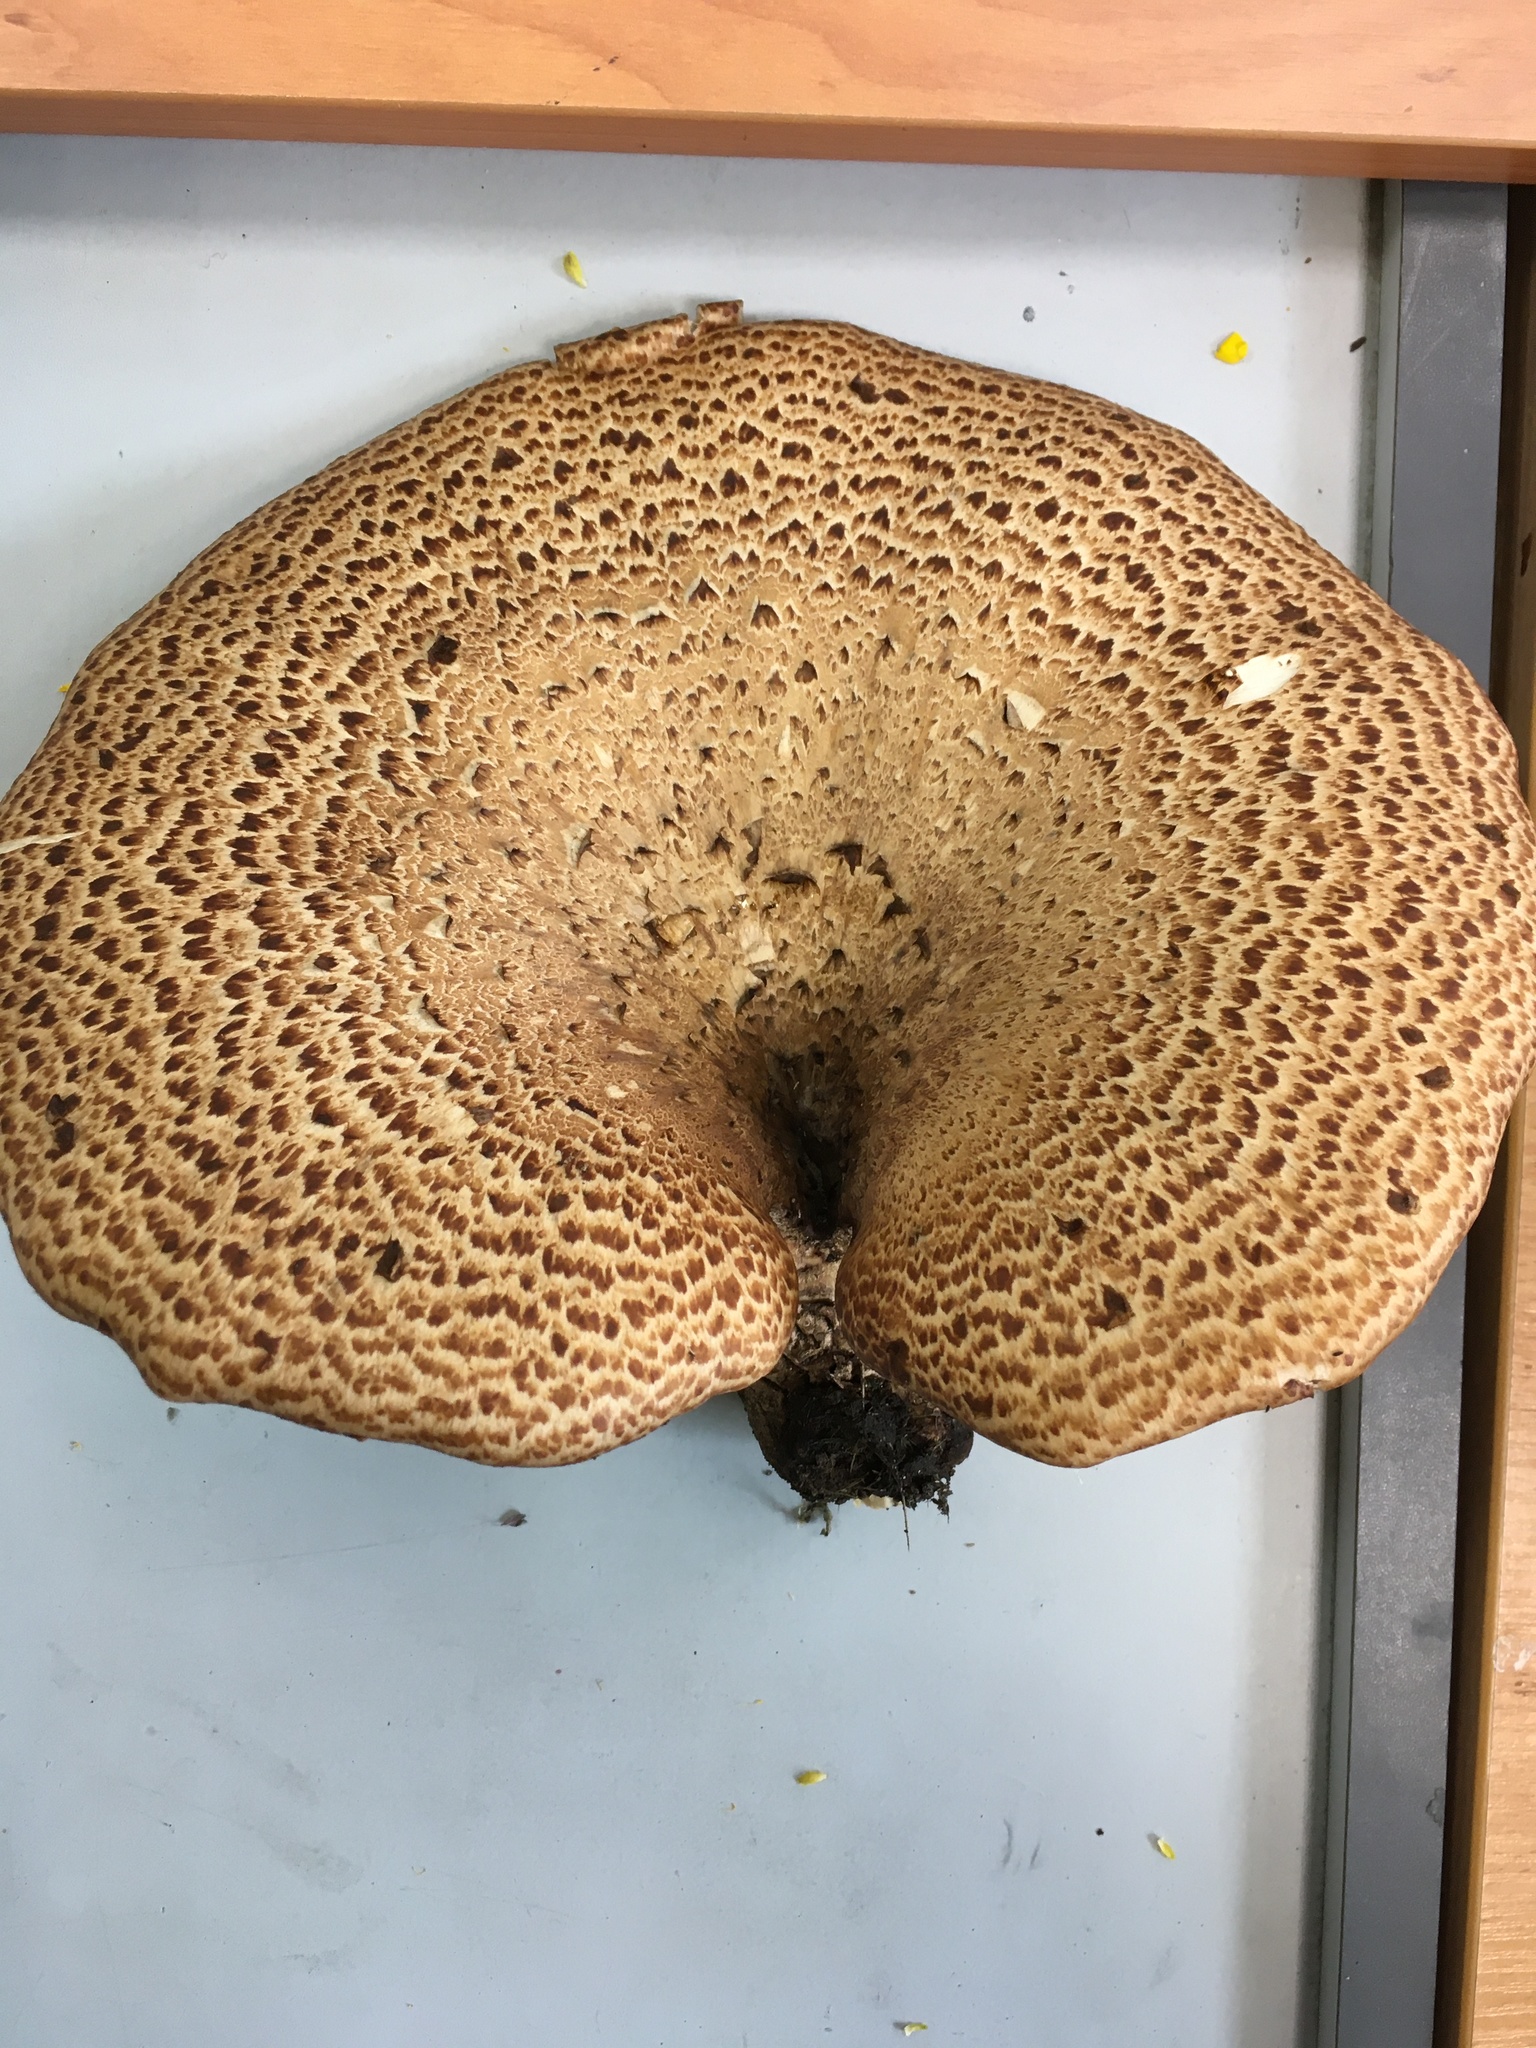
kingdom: Fungi
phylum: Basidiomycota
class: Agaricomycetes
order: Polyporales
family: Polyporaceae
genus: Cerioporus
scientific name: Cerioporus squamosus
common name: Dryad's saddle
